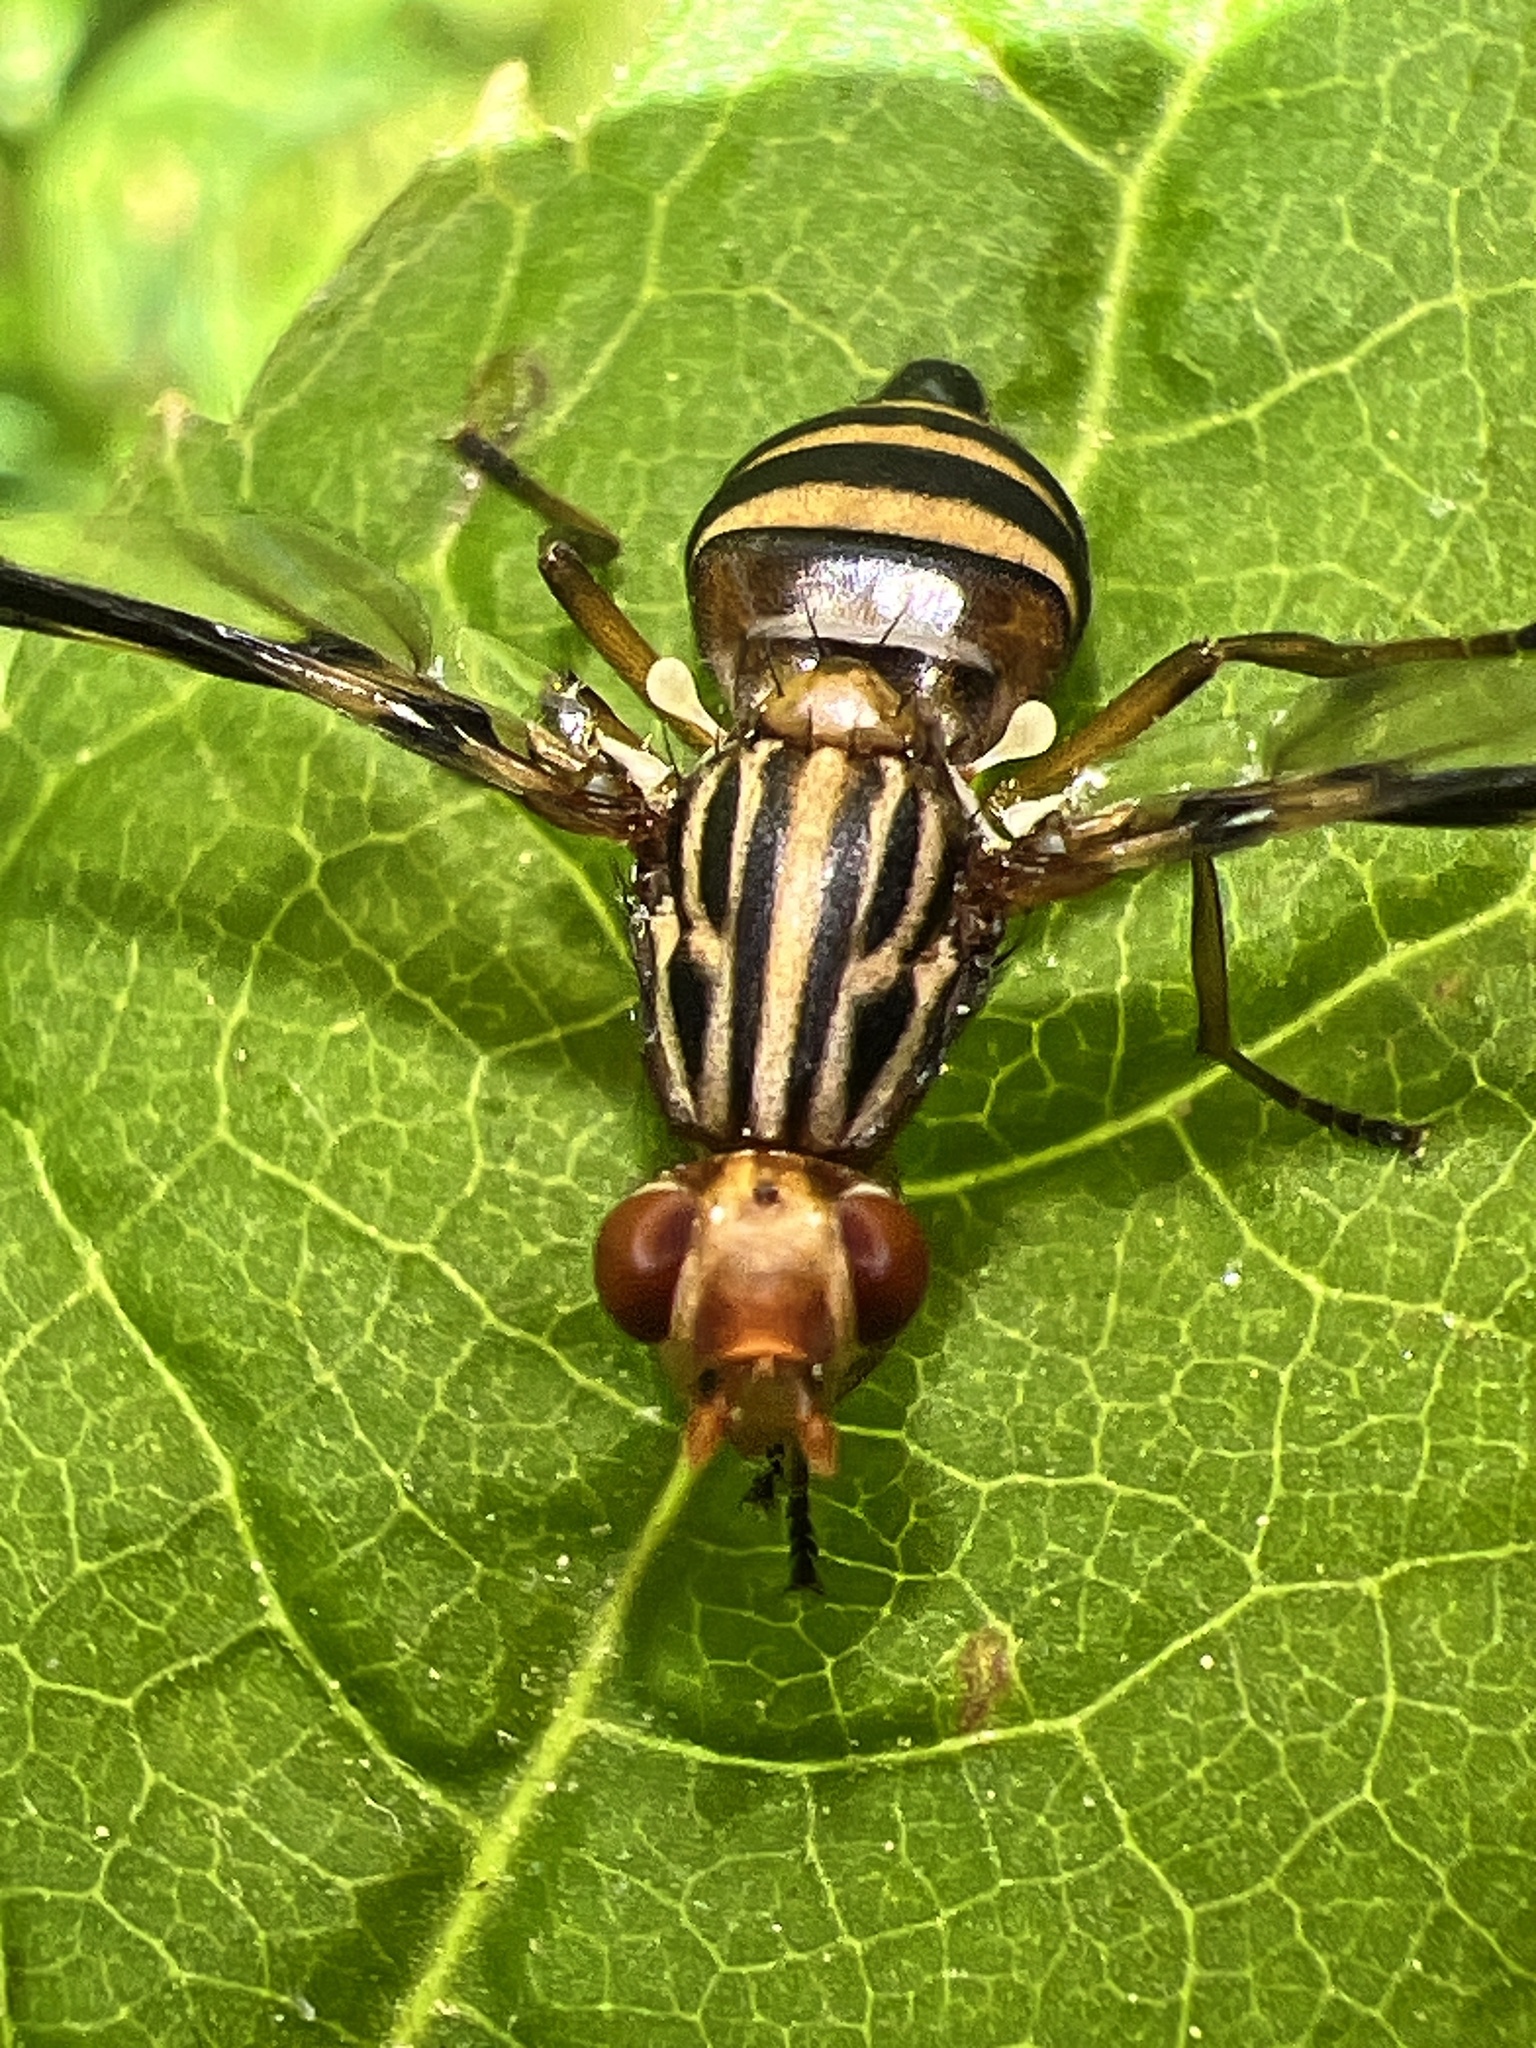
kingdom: Animalia
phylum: Arthropoda
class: Insecta
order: Diptera
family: Ulidiidae
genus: Idana
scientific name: Idana marginata
